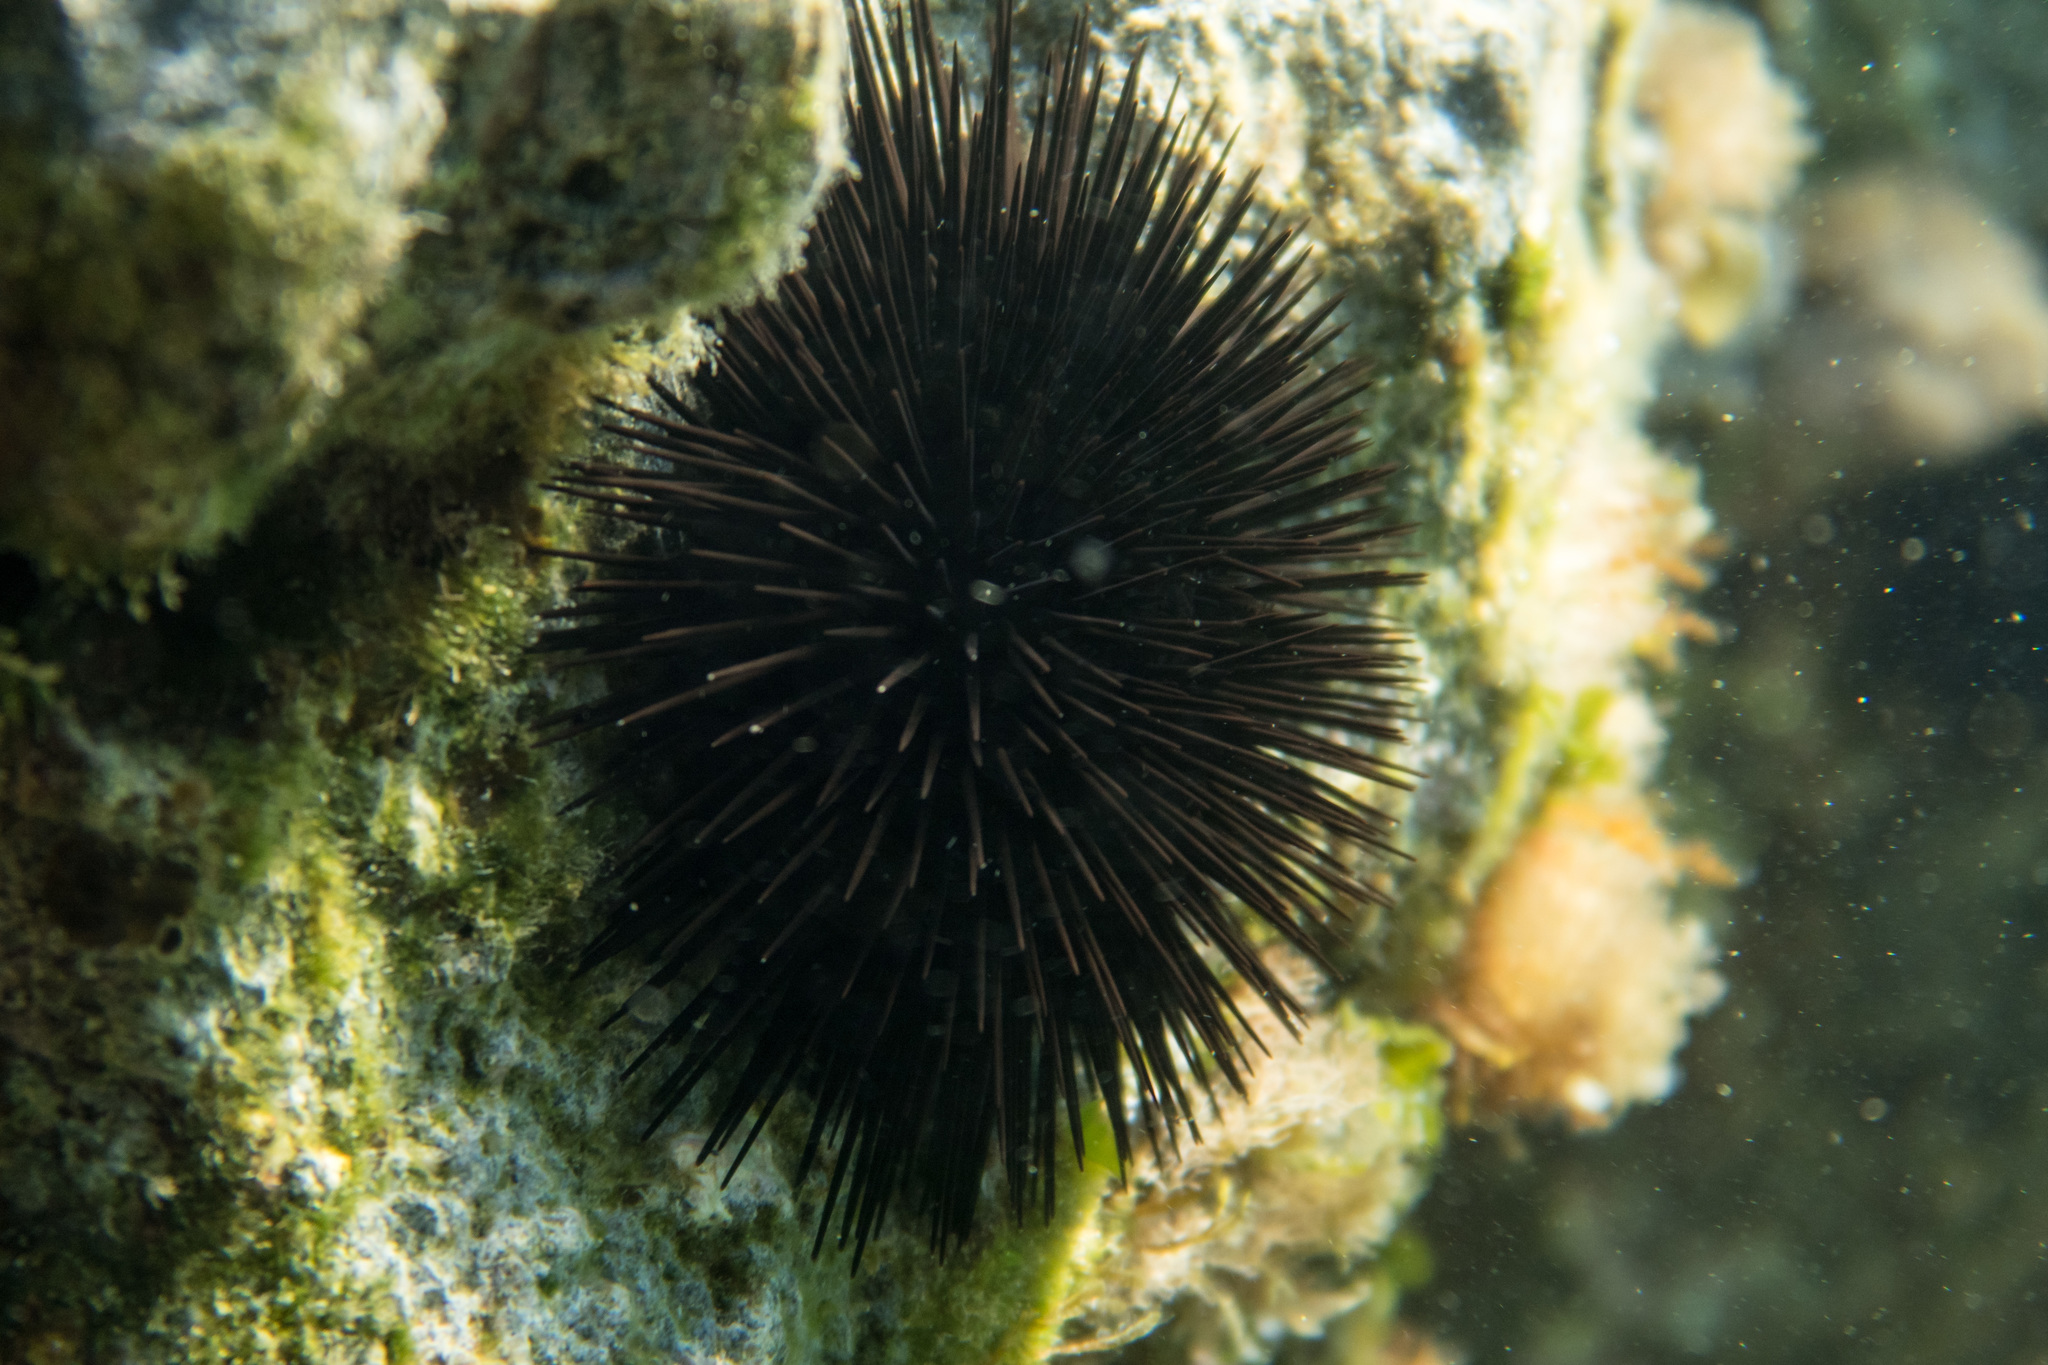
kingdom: Animalia
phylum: Echinodermata
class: Echinoidea
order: Arbacioida
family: Arbaciidae
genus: Arbacia
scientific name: Arbacia lixula
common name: Black sea urchin
